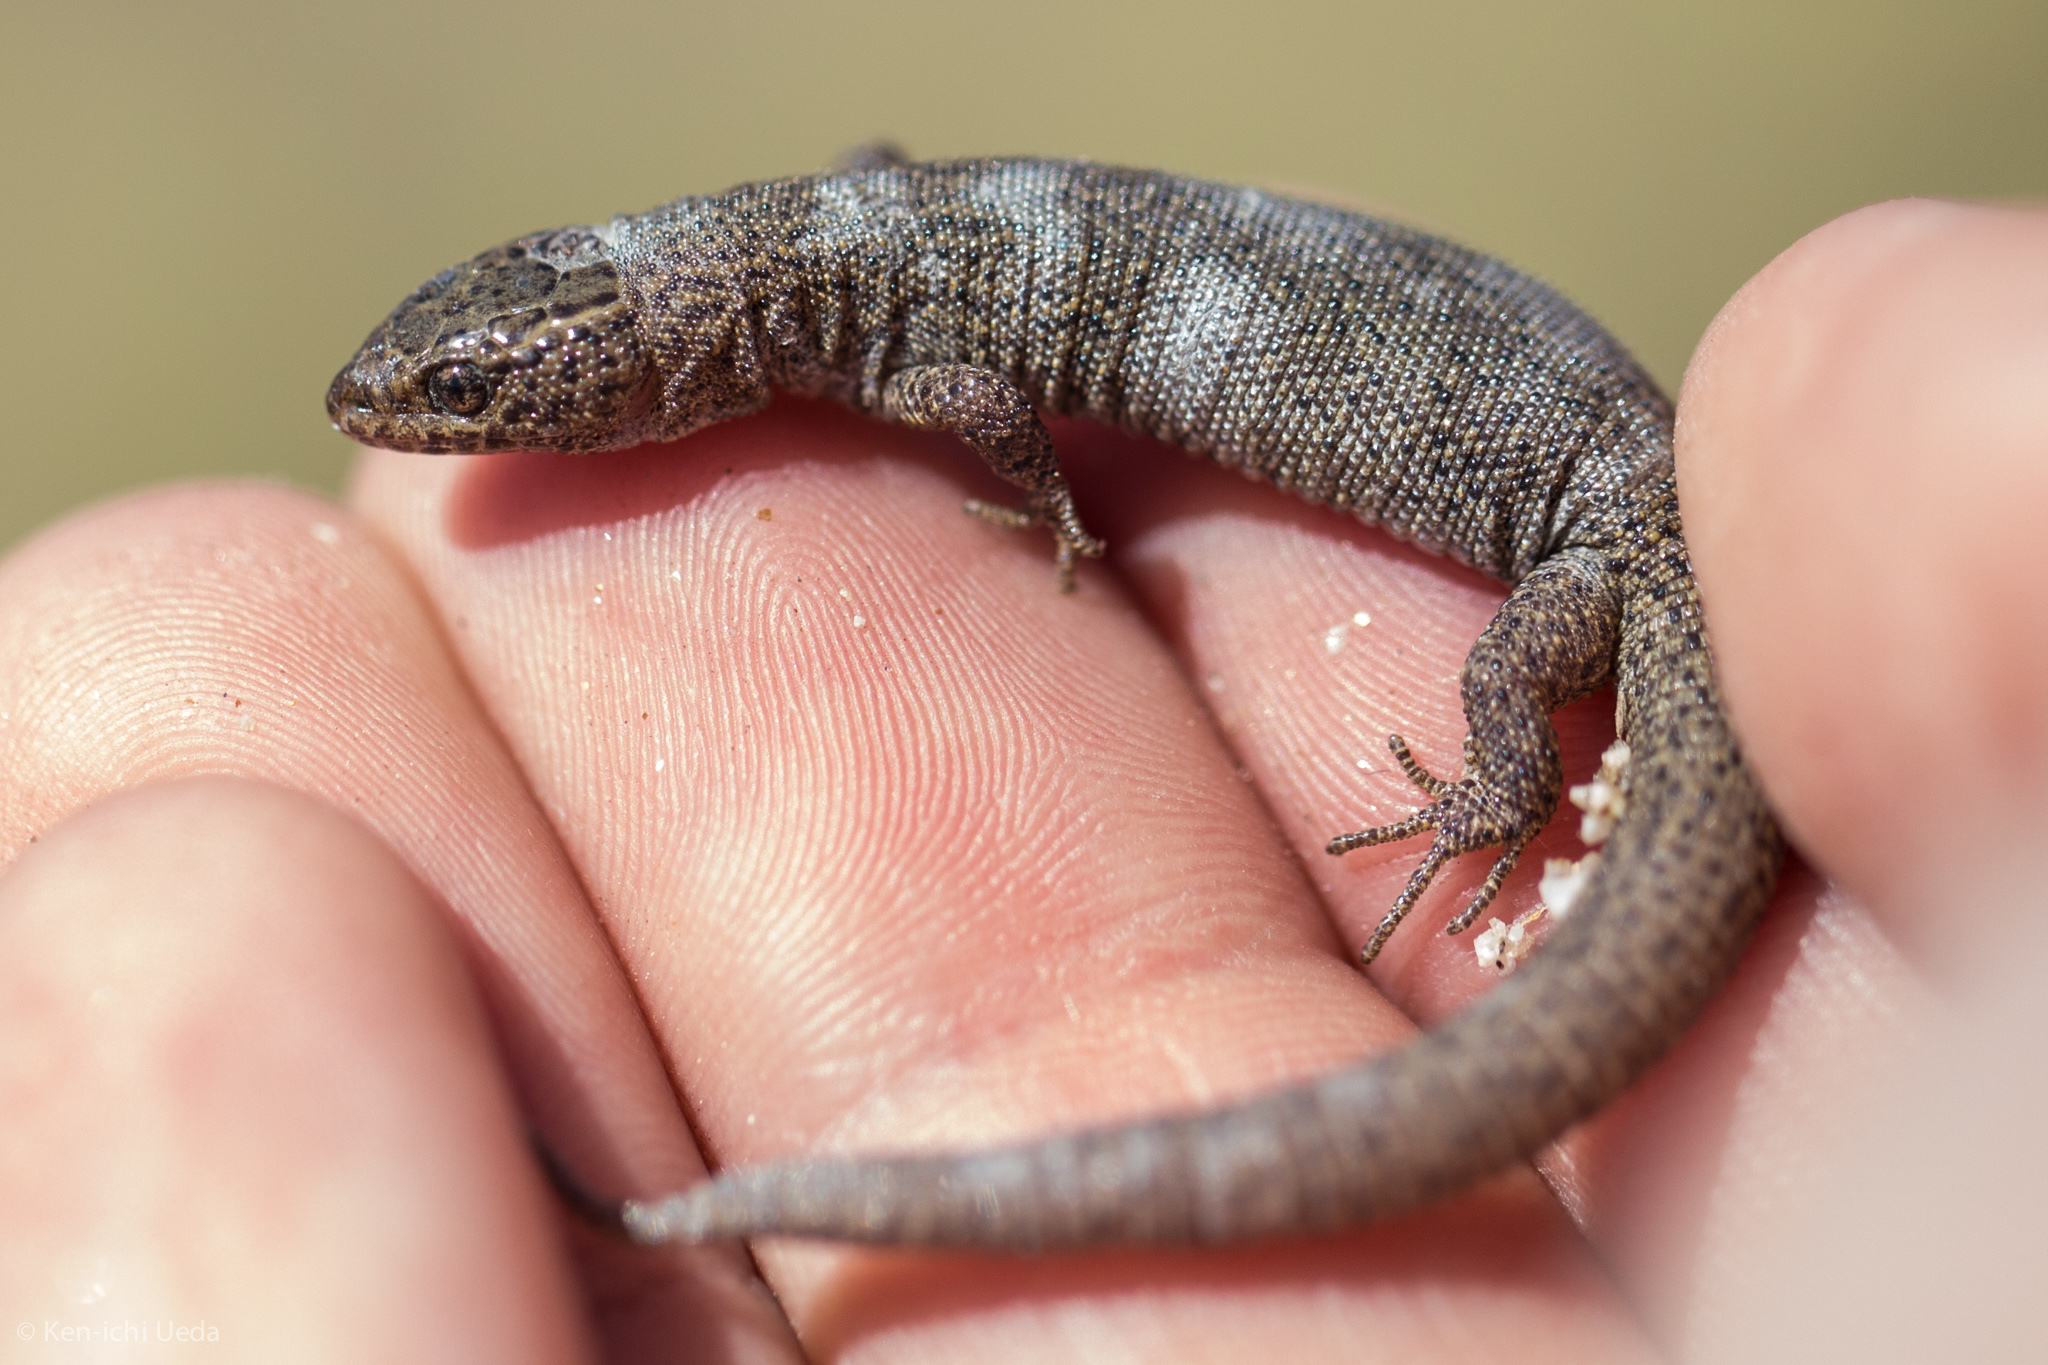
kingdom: Animalia
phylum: Chordata
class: Squamata
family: Xantusiidae
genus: Xantusia
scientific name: Xantusia vigilis
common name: Desert night lizard
